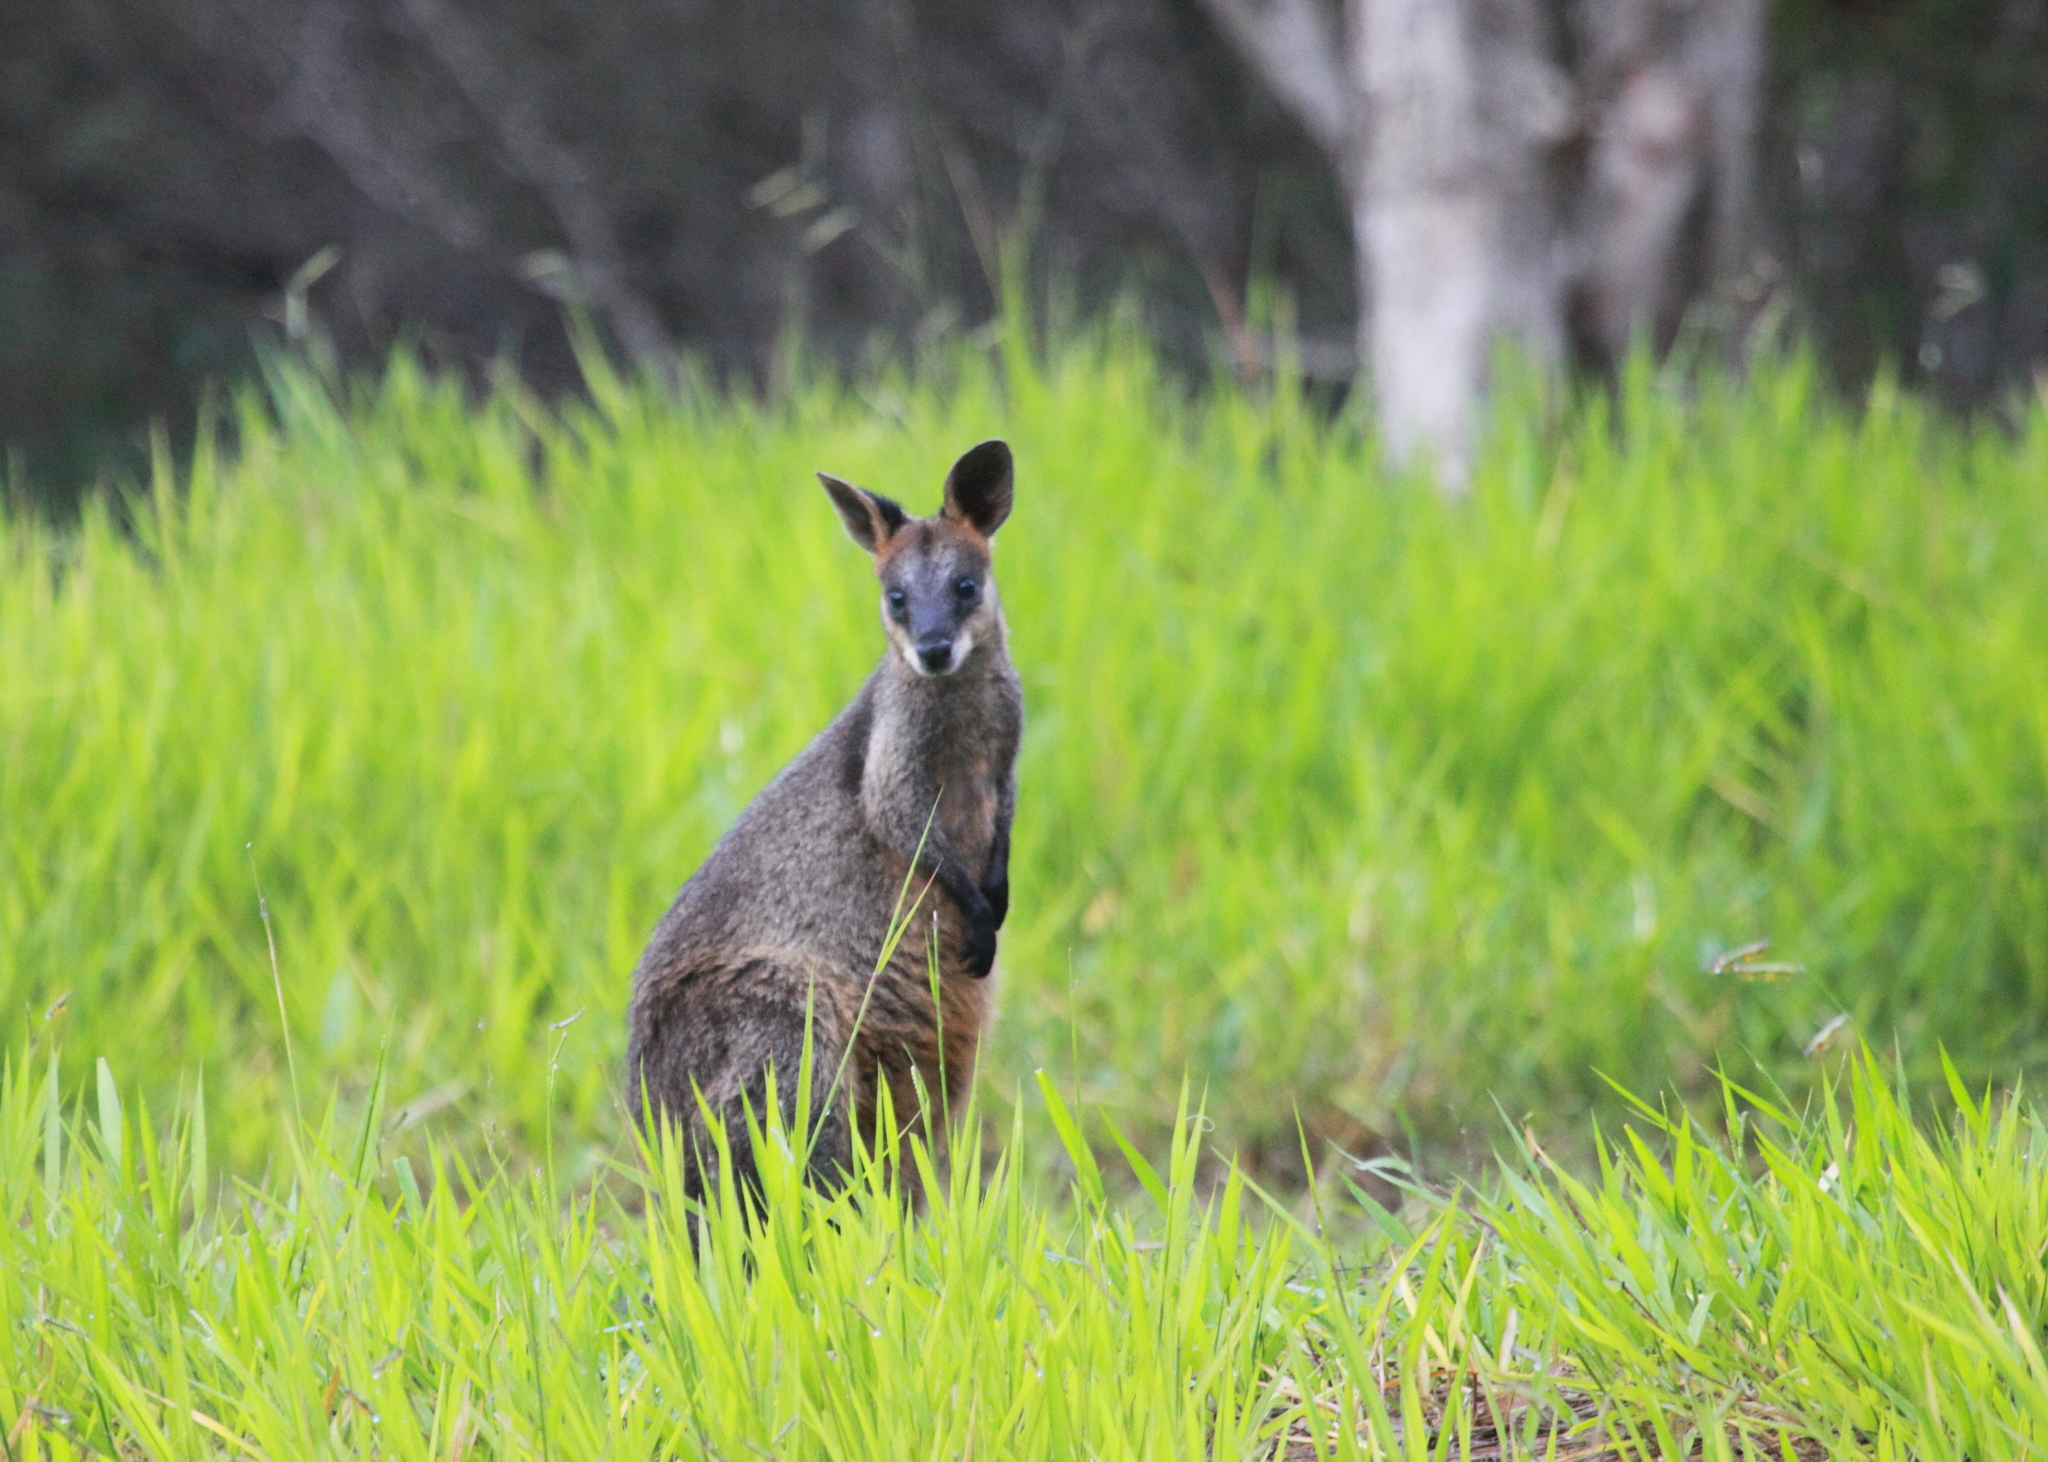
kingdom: Animalia
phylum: Chordata
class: Mammalia
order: Diprotodontia
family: Macropodidae
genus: Wallabia
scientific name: Wallabia bicolor
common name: Swamp wallaby
